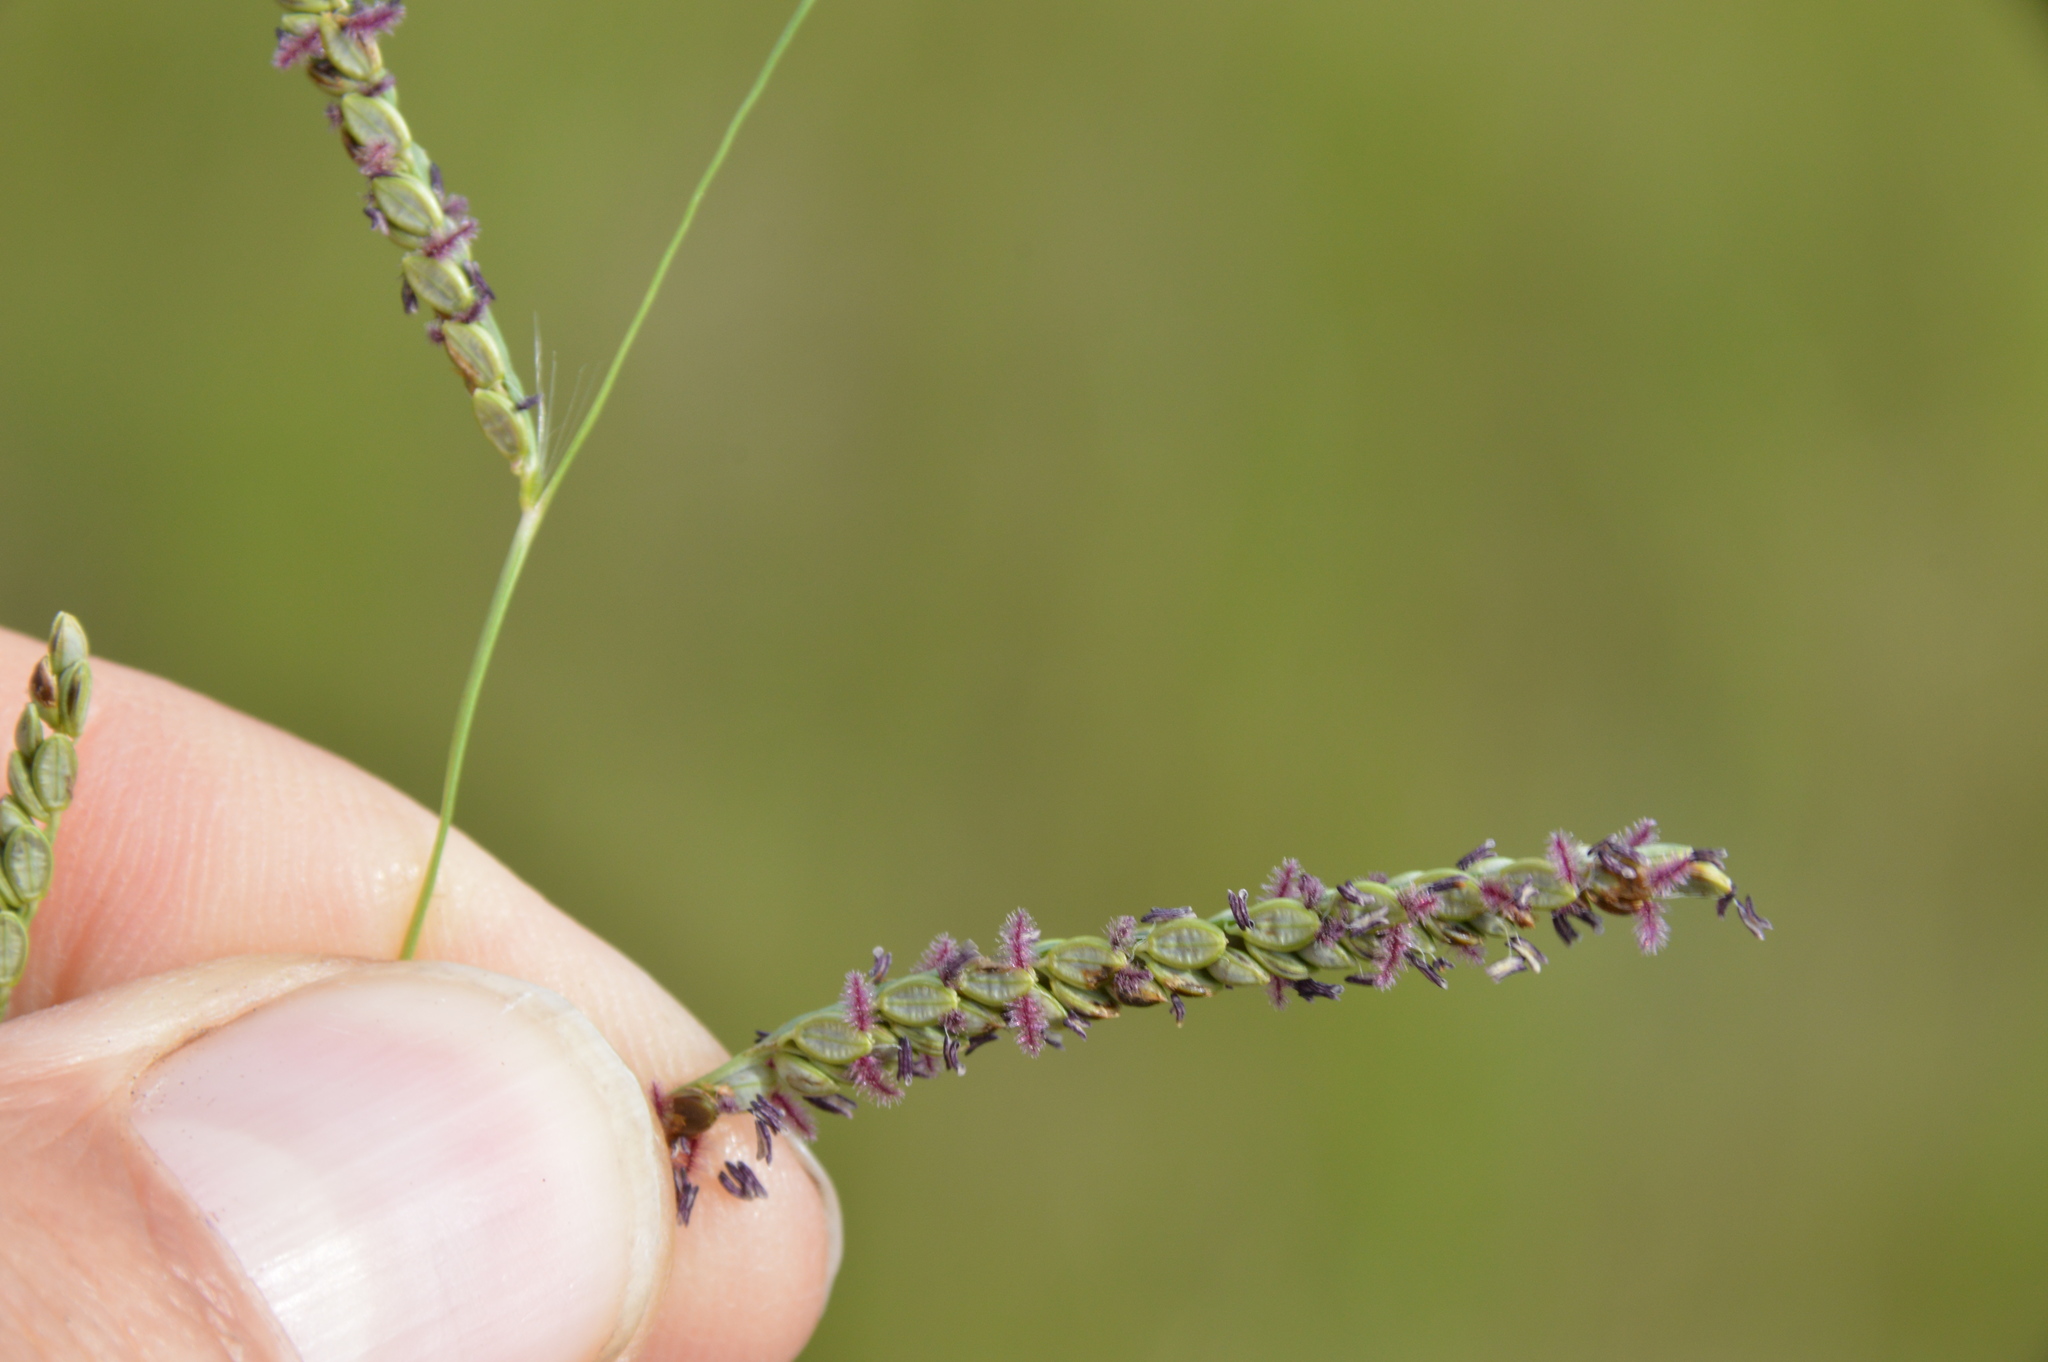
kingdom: Plantae
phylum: Tracheophyta
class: Liliopsida
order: Poales
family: Poaceae
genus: Paspalum
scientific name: Paspalum plicatulum
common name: Top paspalum
